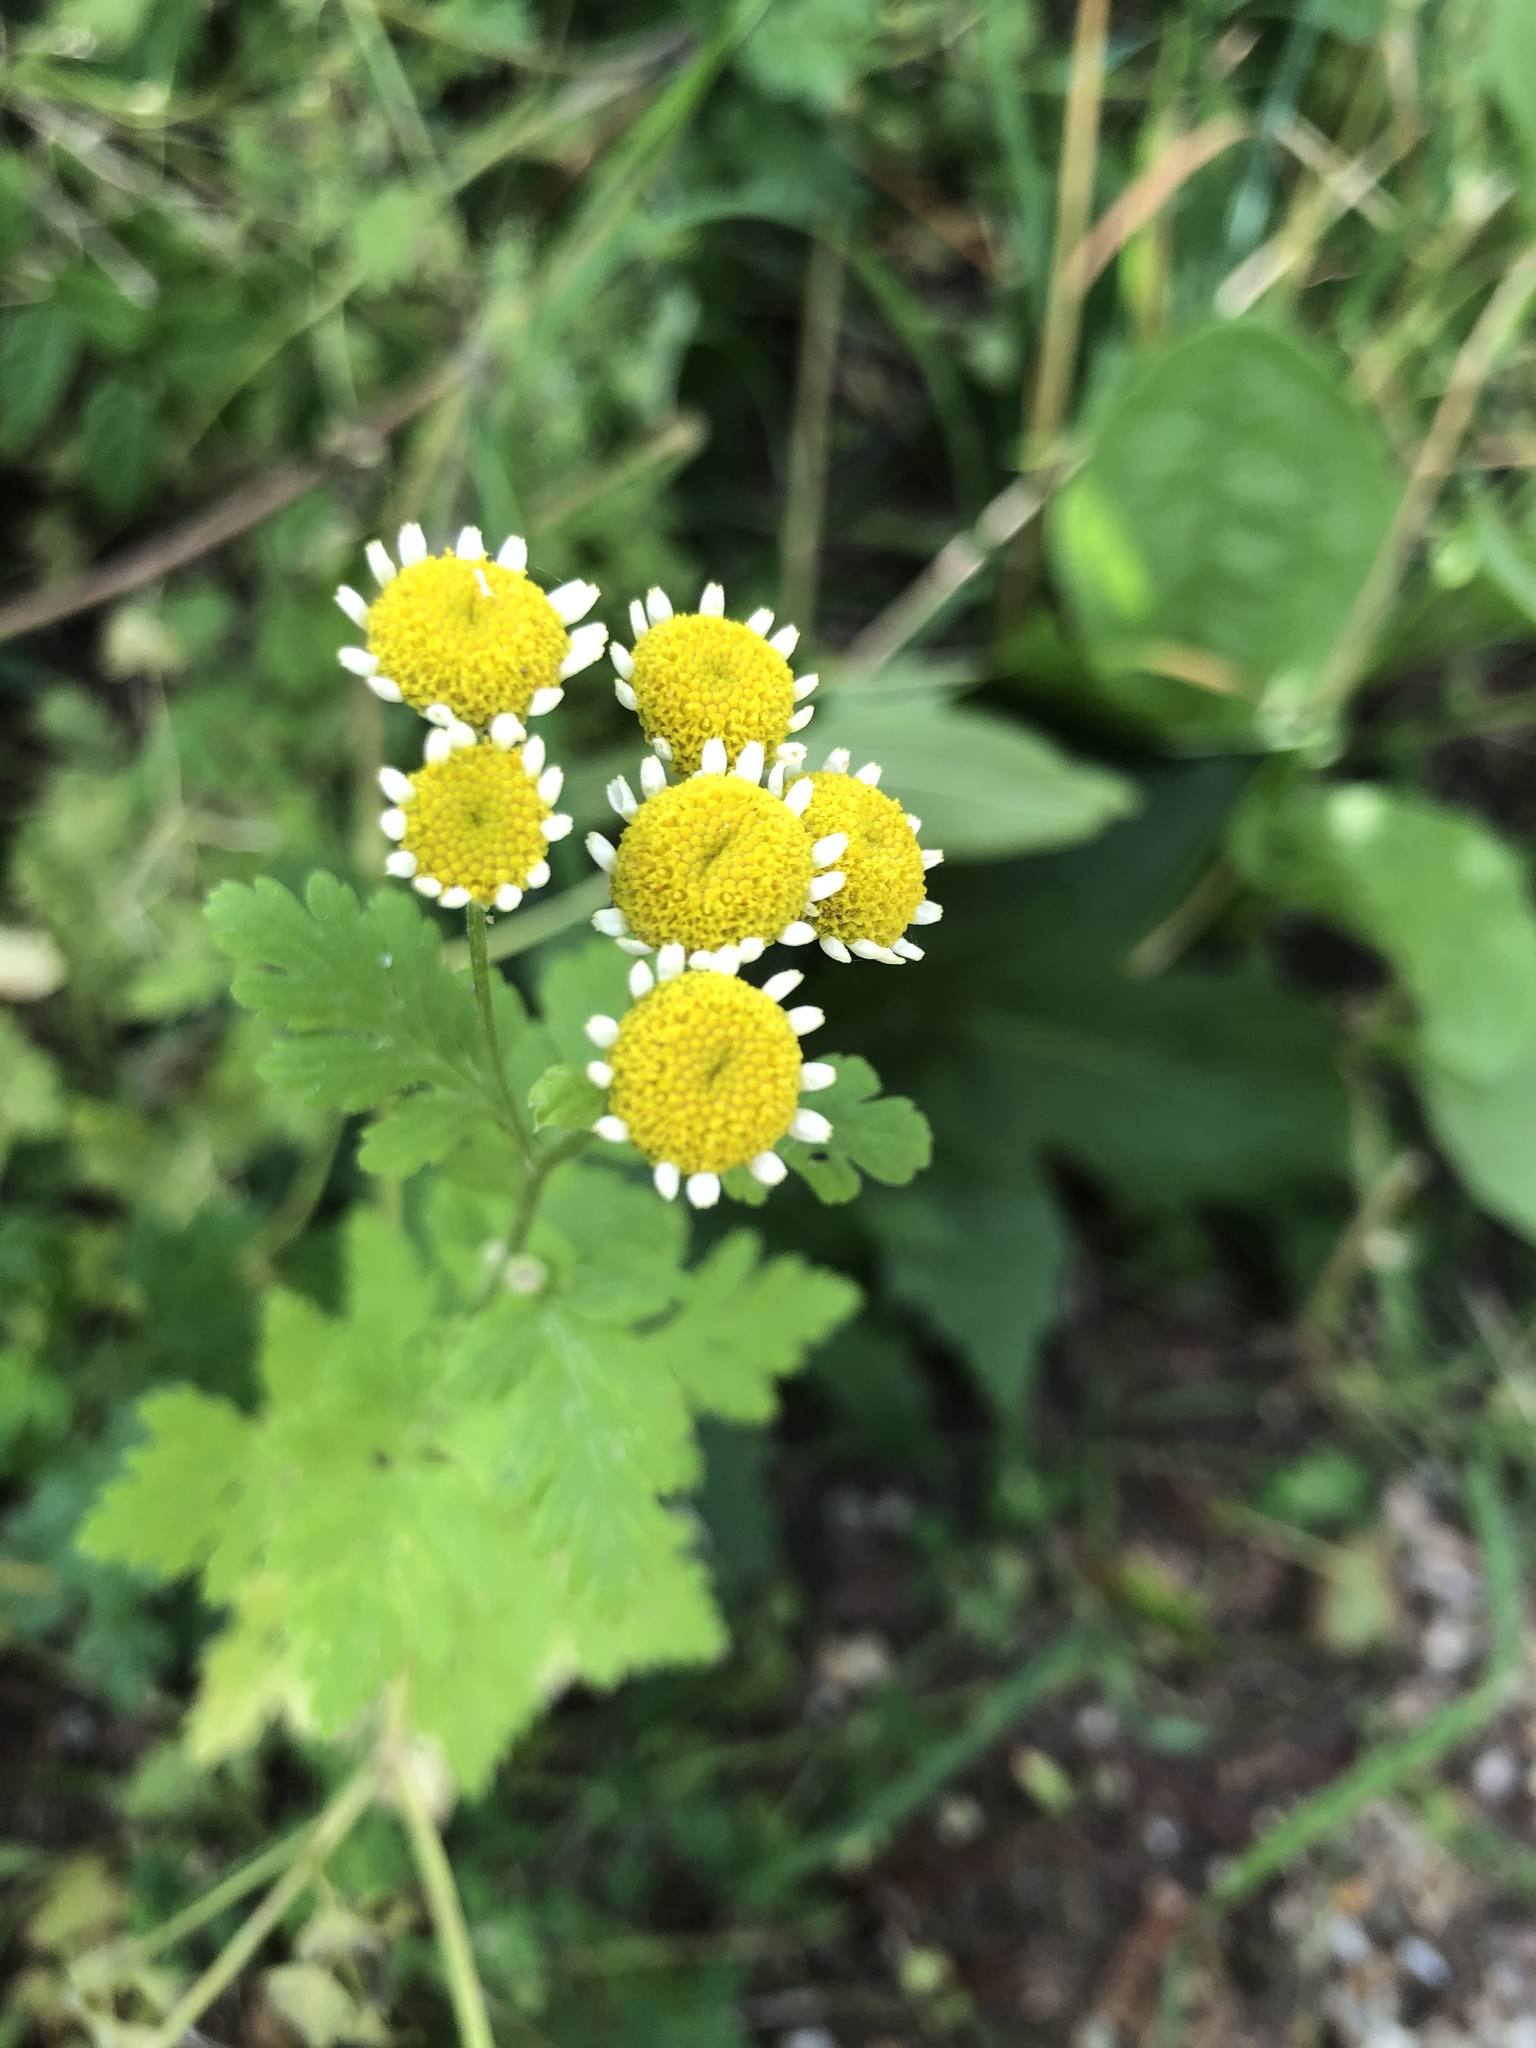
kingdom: Plantae
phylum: Tracheophyta
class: Magnoliopsida
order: Asterales
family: Asteraceae
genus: Tanacetum
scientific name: Tanacetum parthenium
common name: Feverfew
